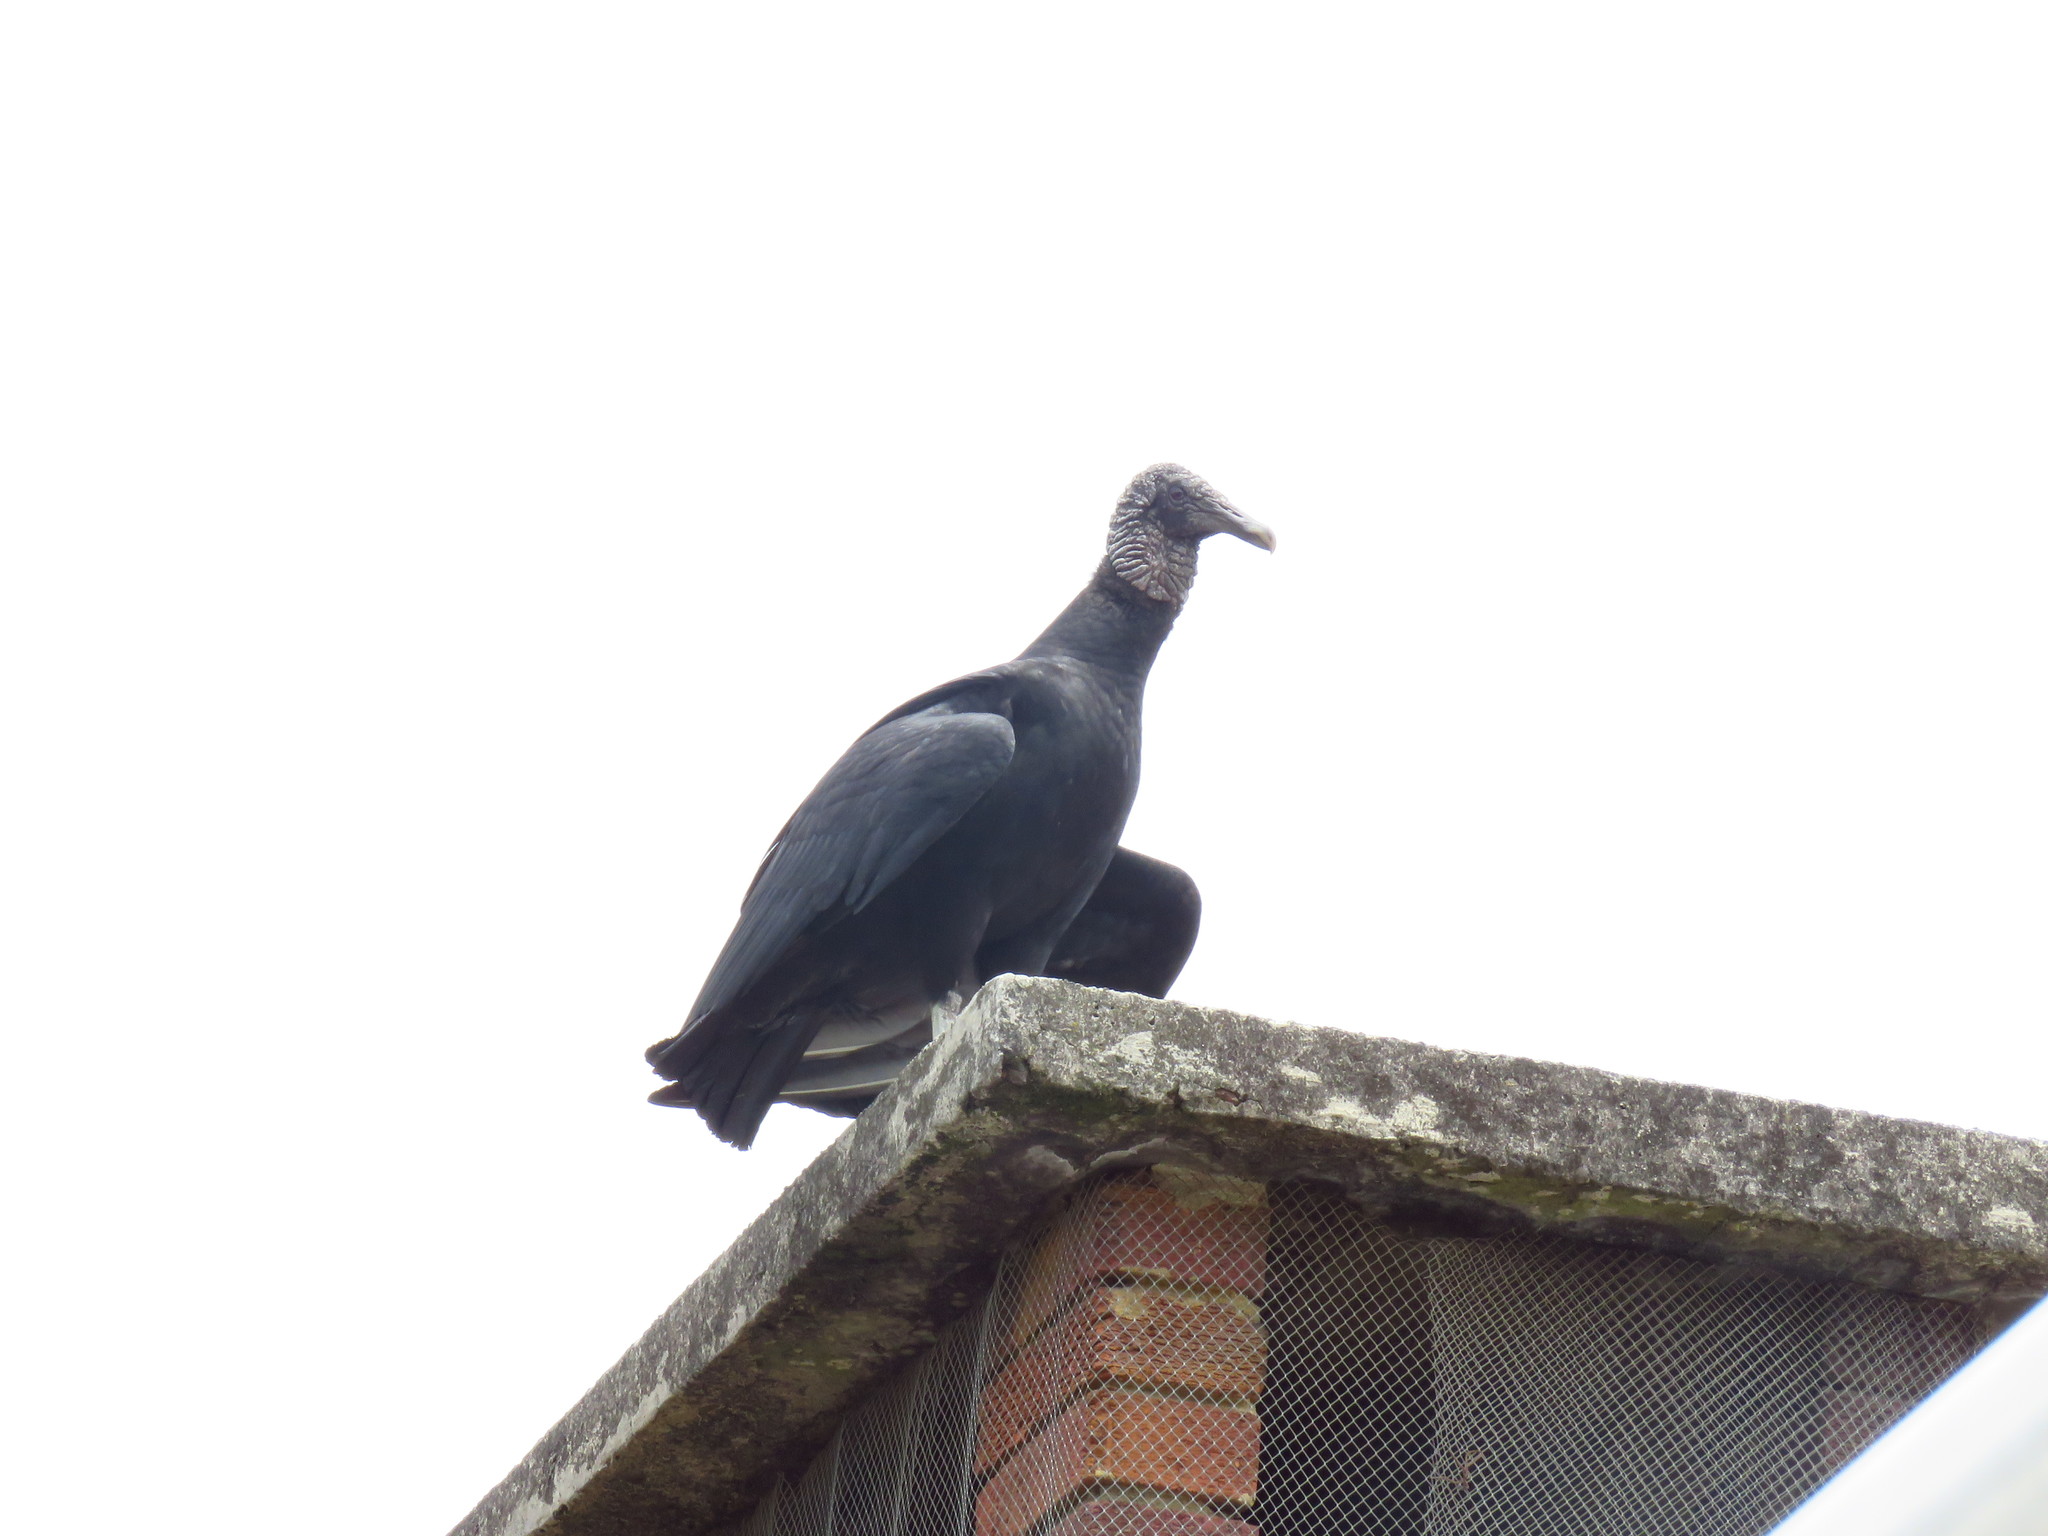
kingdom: Animalia
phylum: Chordata
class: Aves
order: Accipitriformes
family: Cathartidae
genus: Coragyps
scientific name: Coragyps atratus
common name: Black vulture
